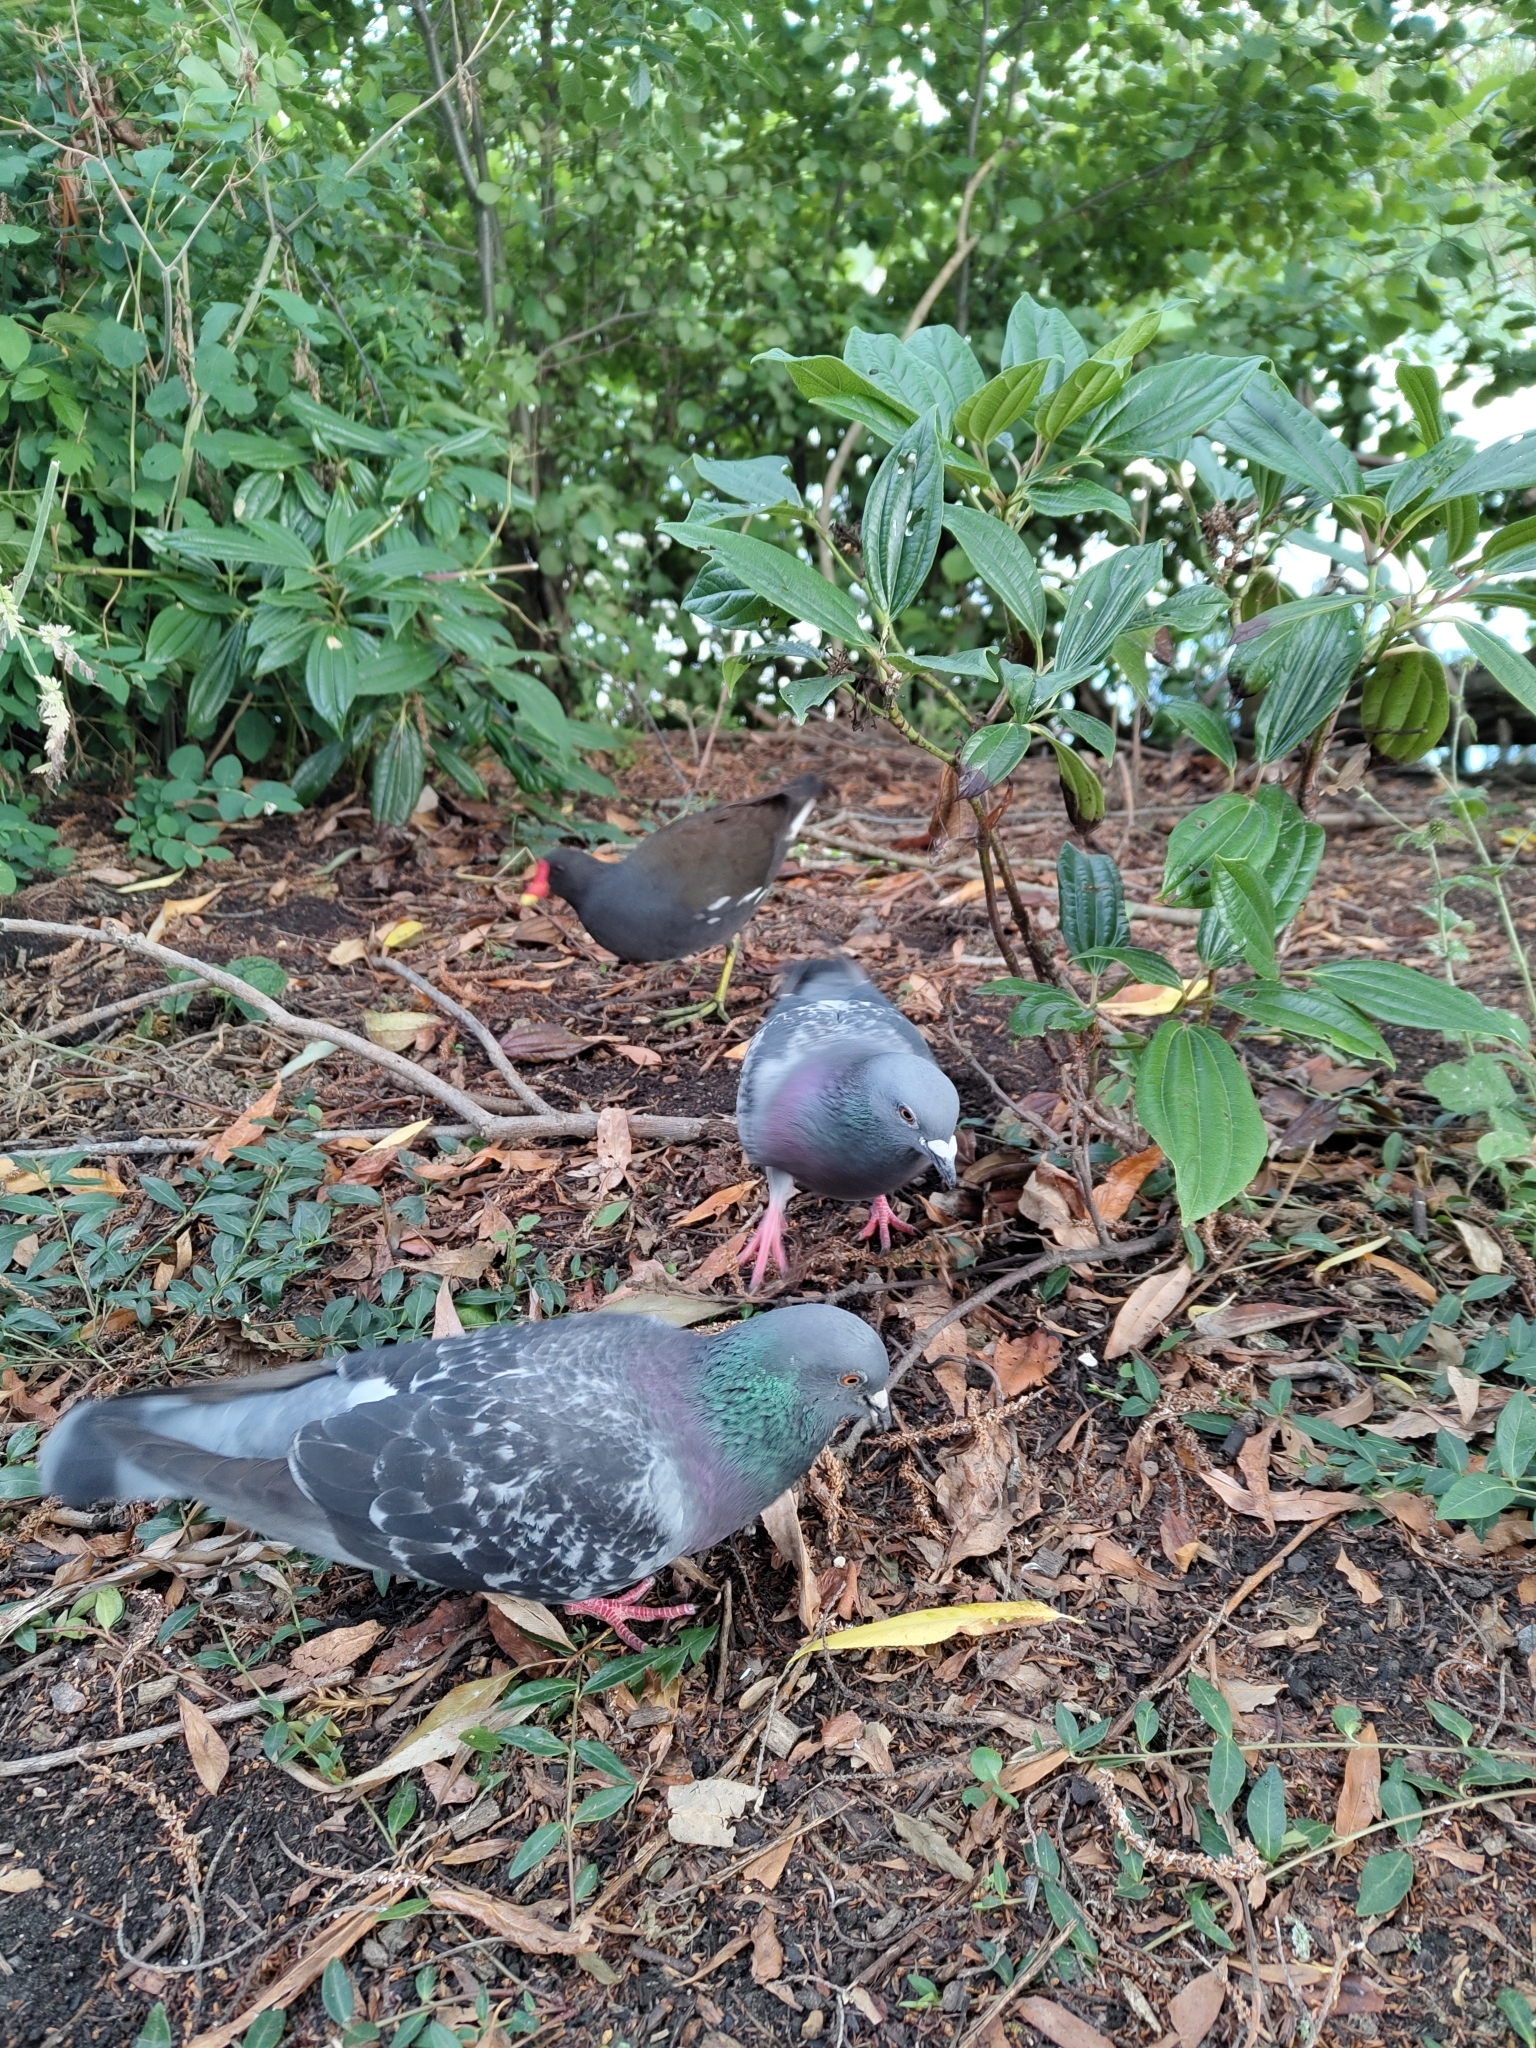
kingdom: Animalia
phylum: Chordata
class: Aves
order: Columbiformes
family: Columbidae
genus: Columba
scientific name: Columba livia
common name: Rock pigeon
